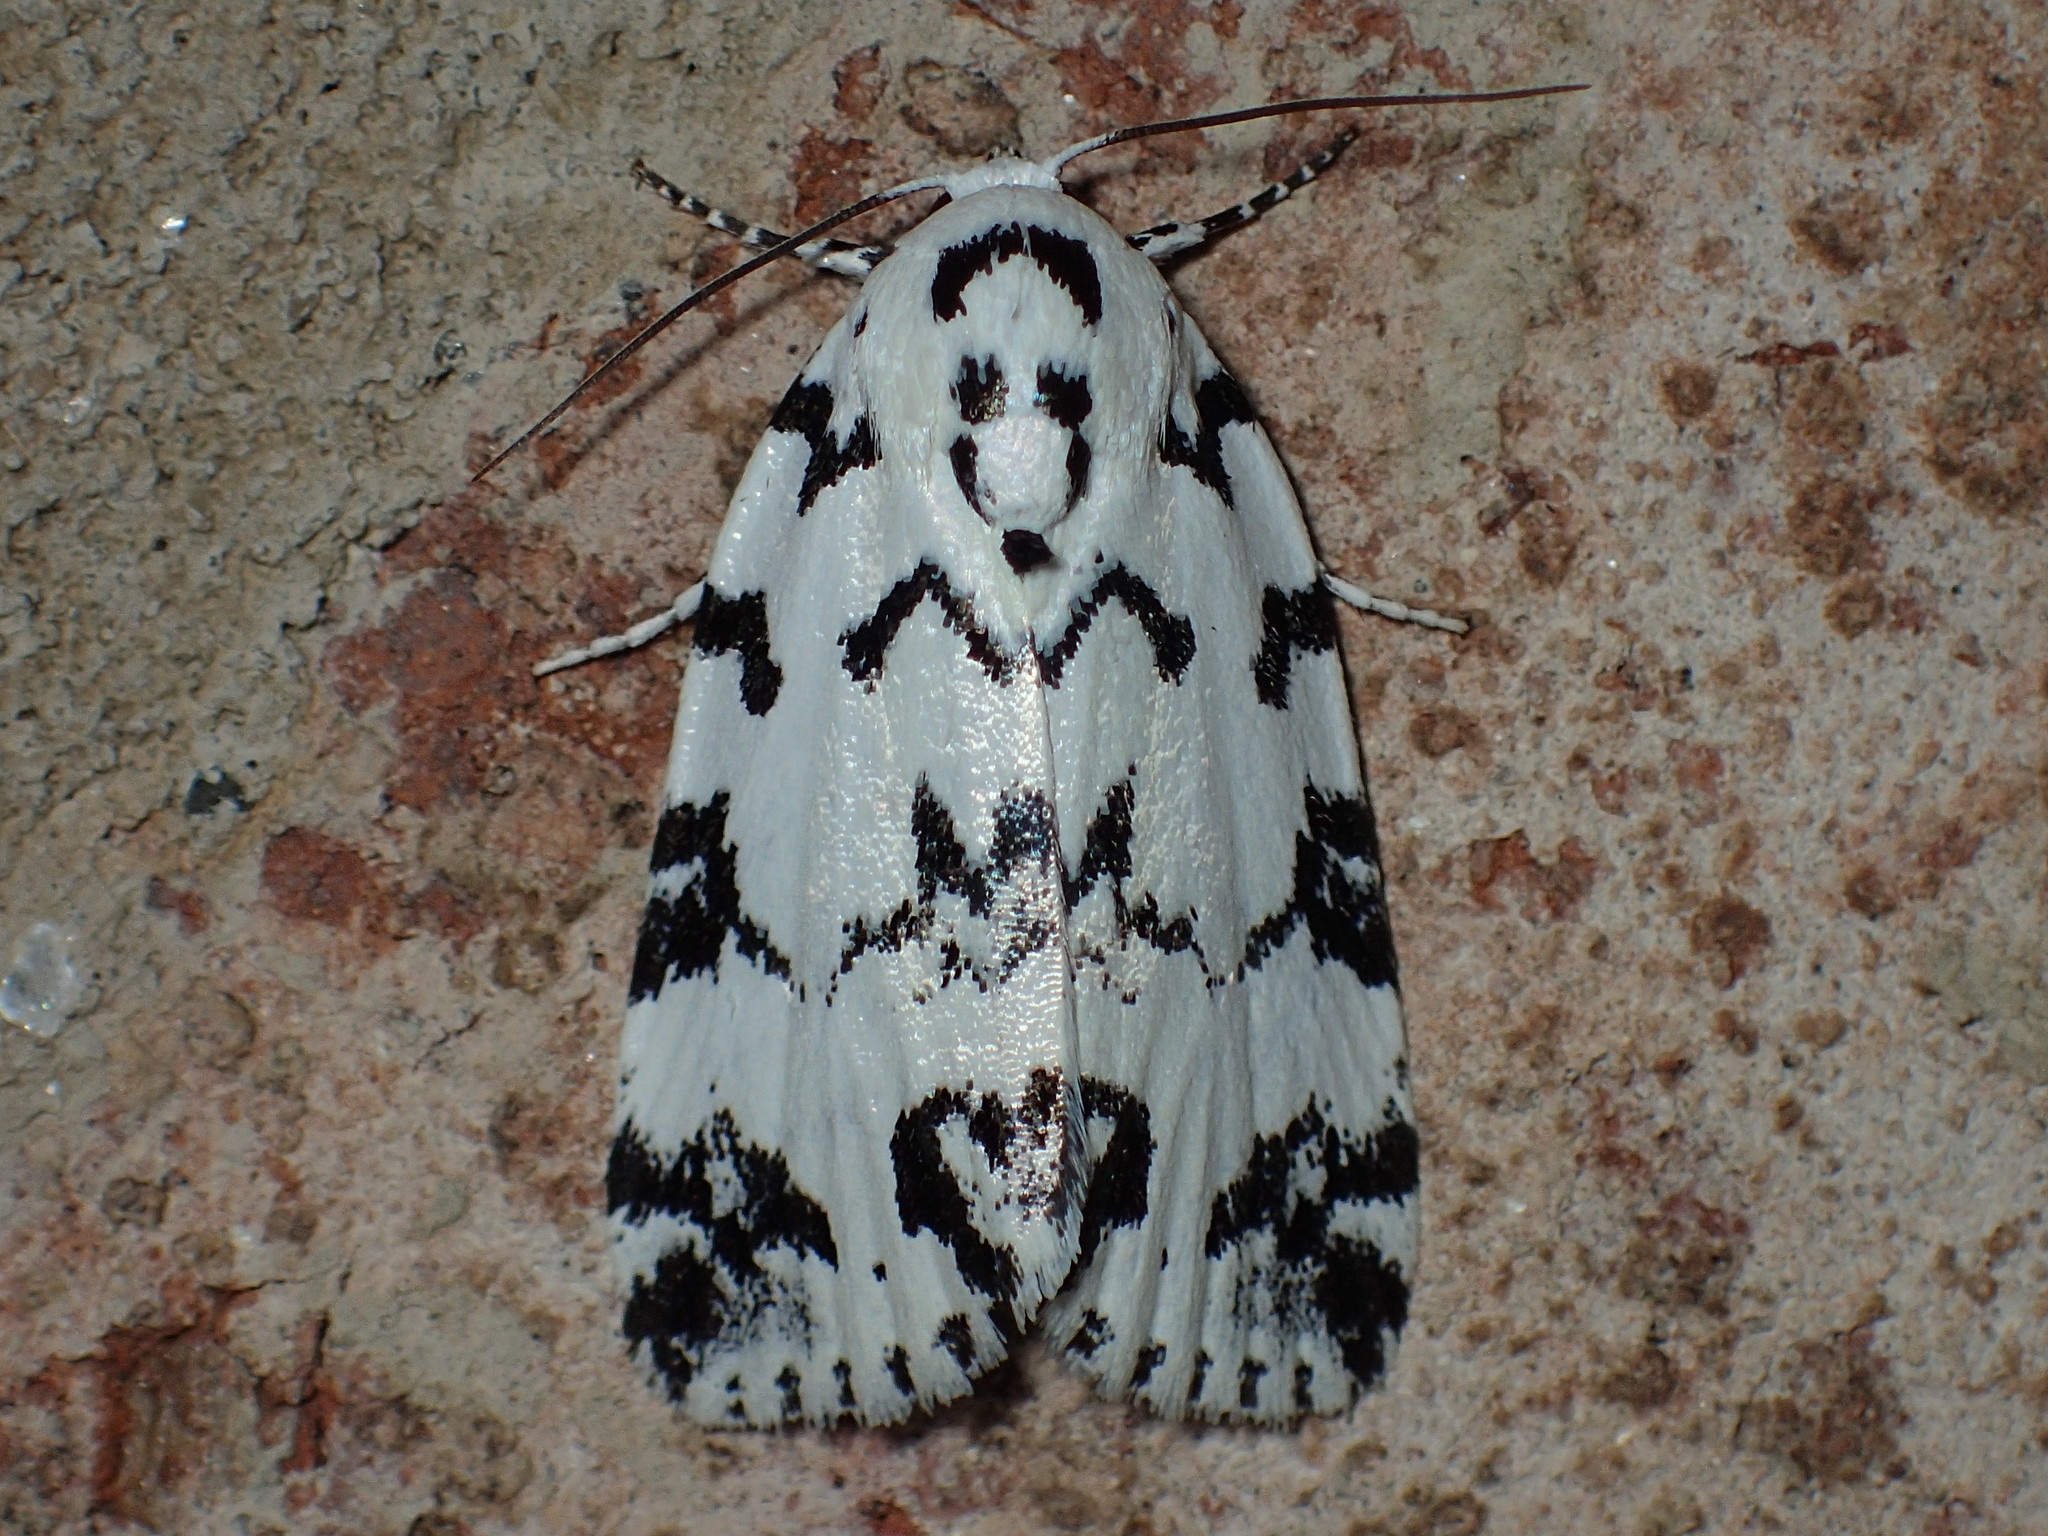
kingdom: Animalia
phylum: Arthropoda
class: Insecta
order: Lepidoptera
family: Noctuidae
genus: Polygrammate
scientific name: Polygrammate hebraeicum
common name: Hebrew moth
